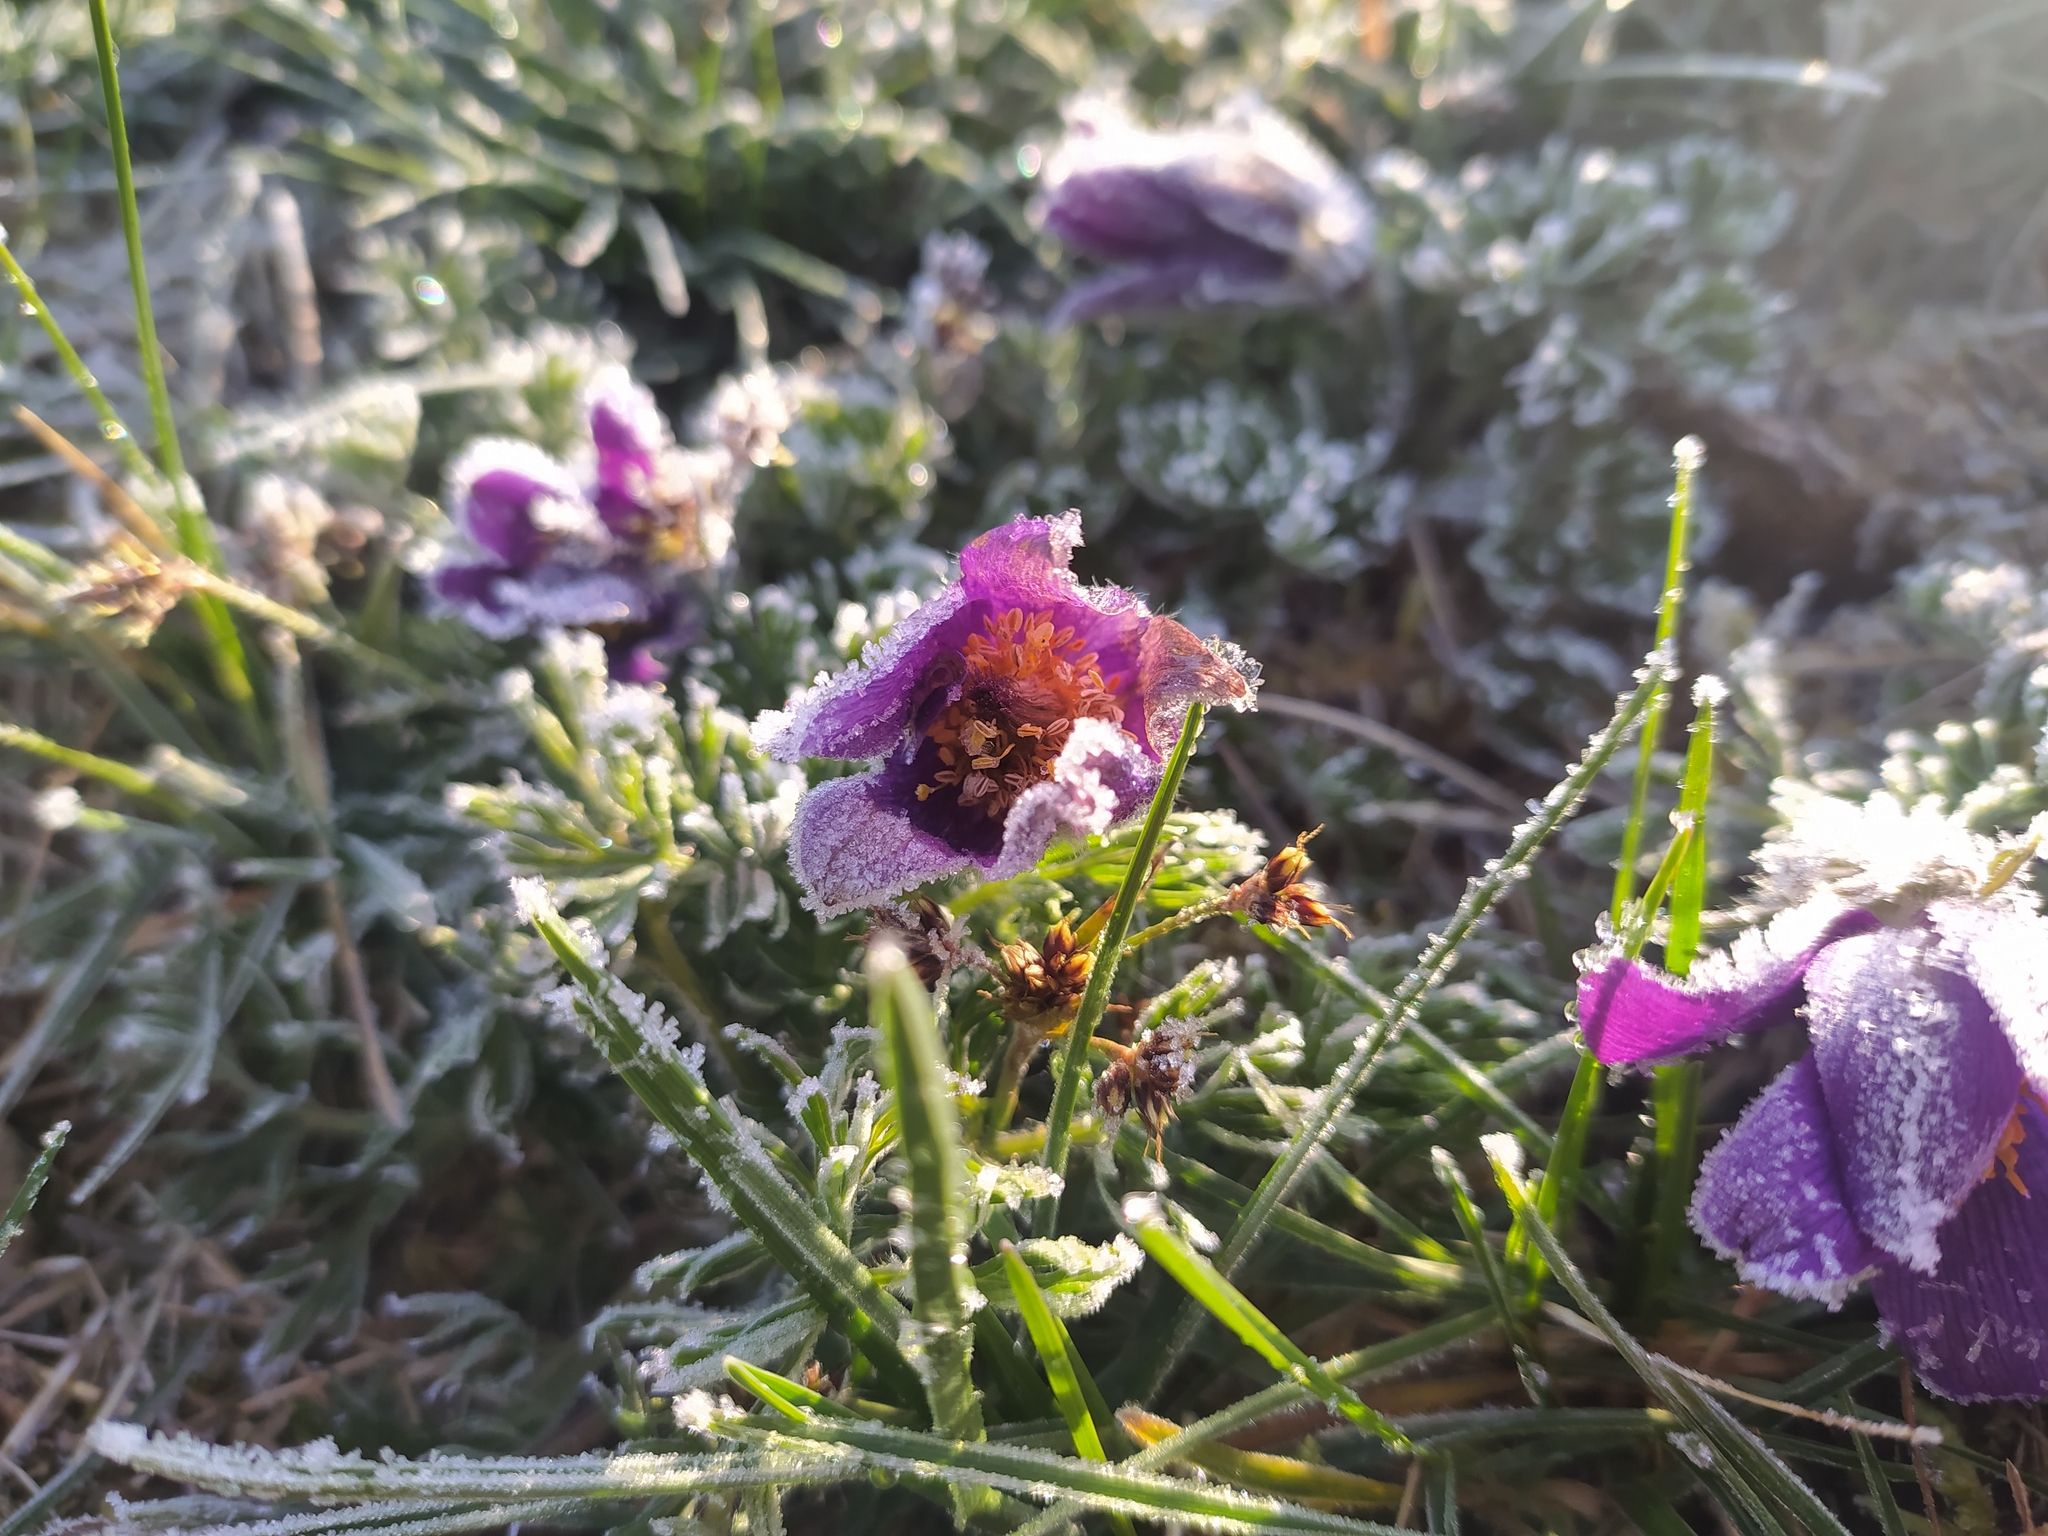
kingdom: Plantae
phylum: Tracheophyta
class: Magnoliopsida
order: Ranunculales
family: Ranunculaceae
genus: Pulsatilla
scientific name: Pulsatilla vulgaris
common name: Pasqueflower
